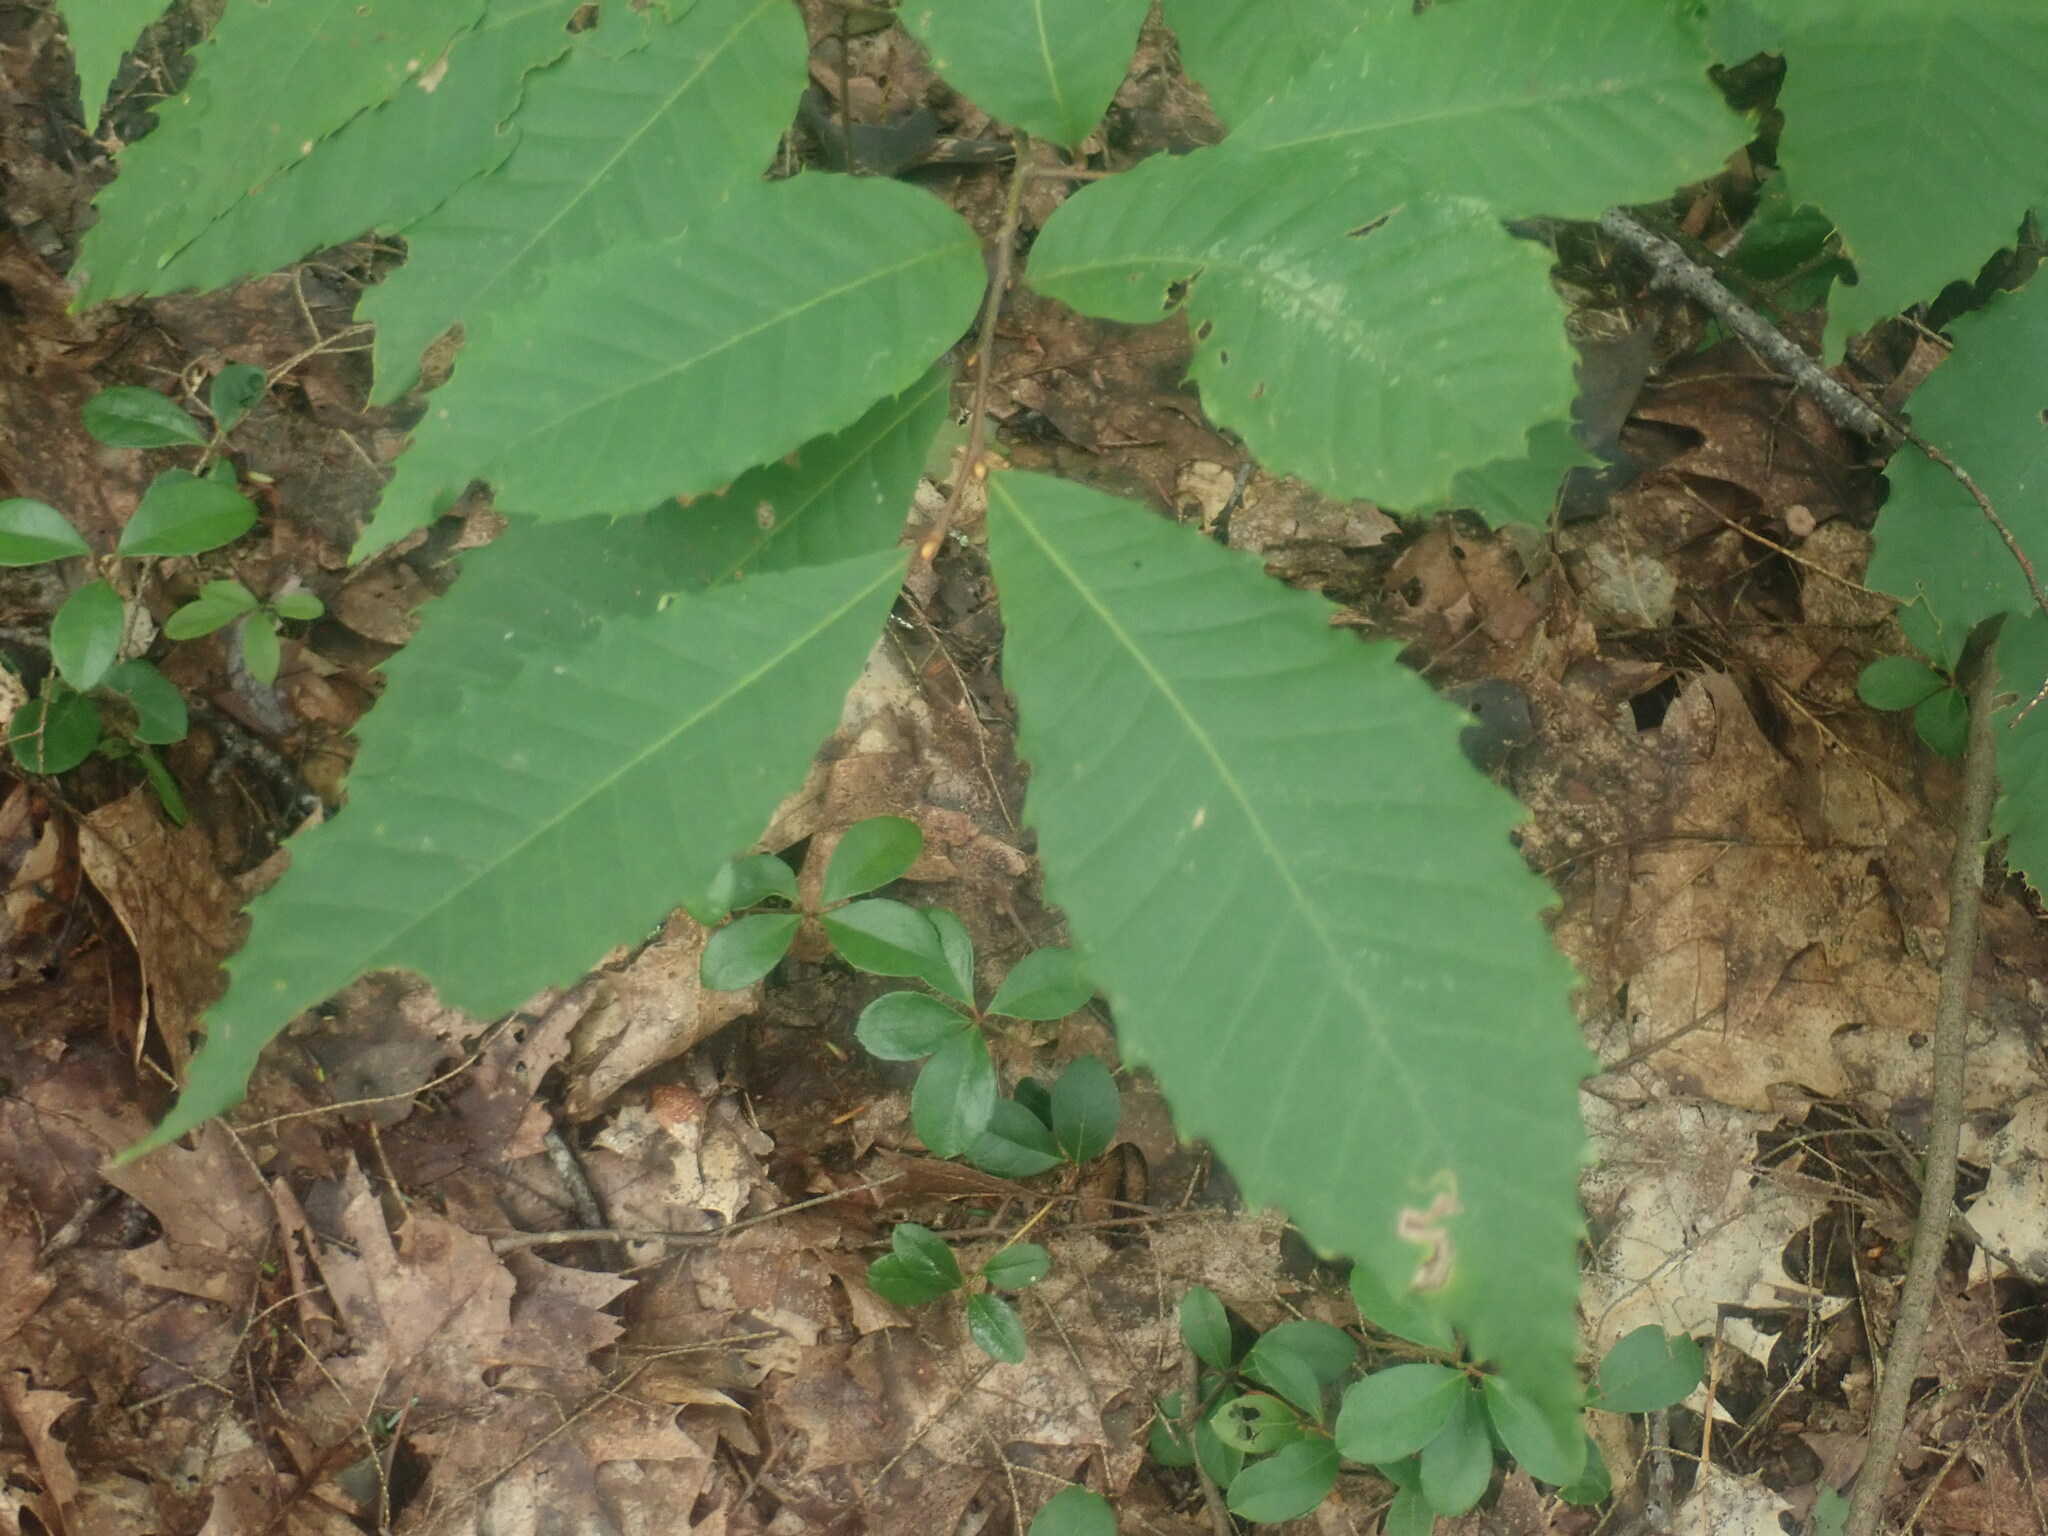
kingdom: Plantae
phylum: Tracheophyta
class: Magnoliopsida
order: Fagales
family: Fagaceae
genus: Castanea
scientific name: Castanea dentata
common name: American chestnut
